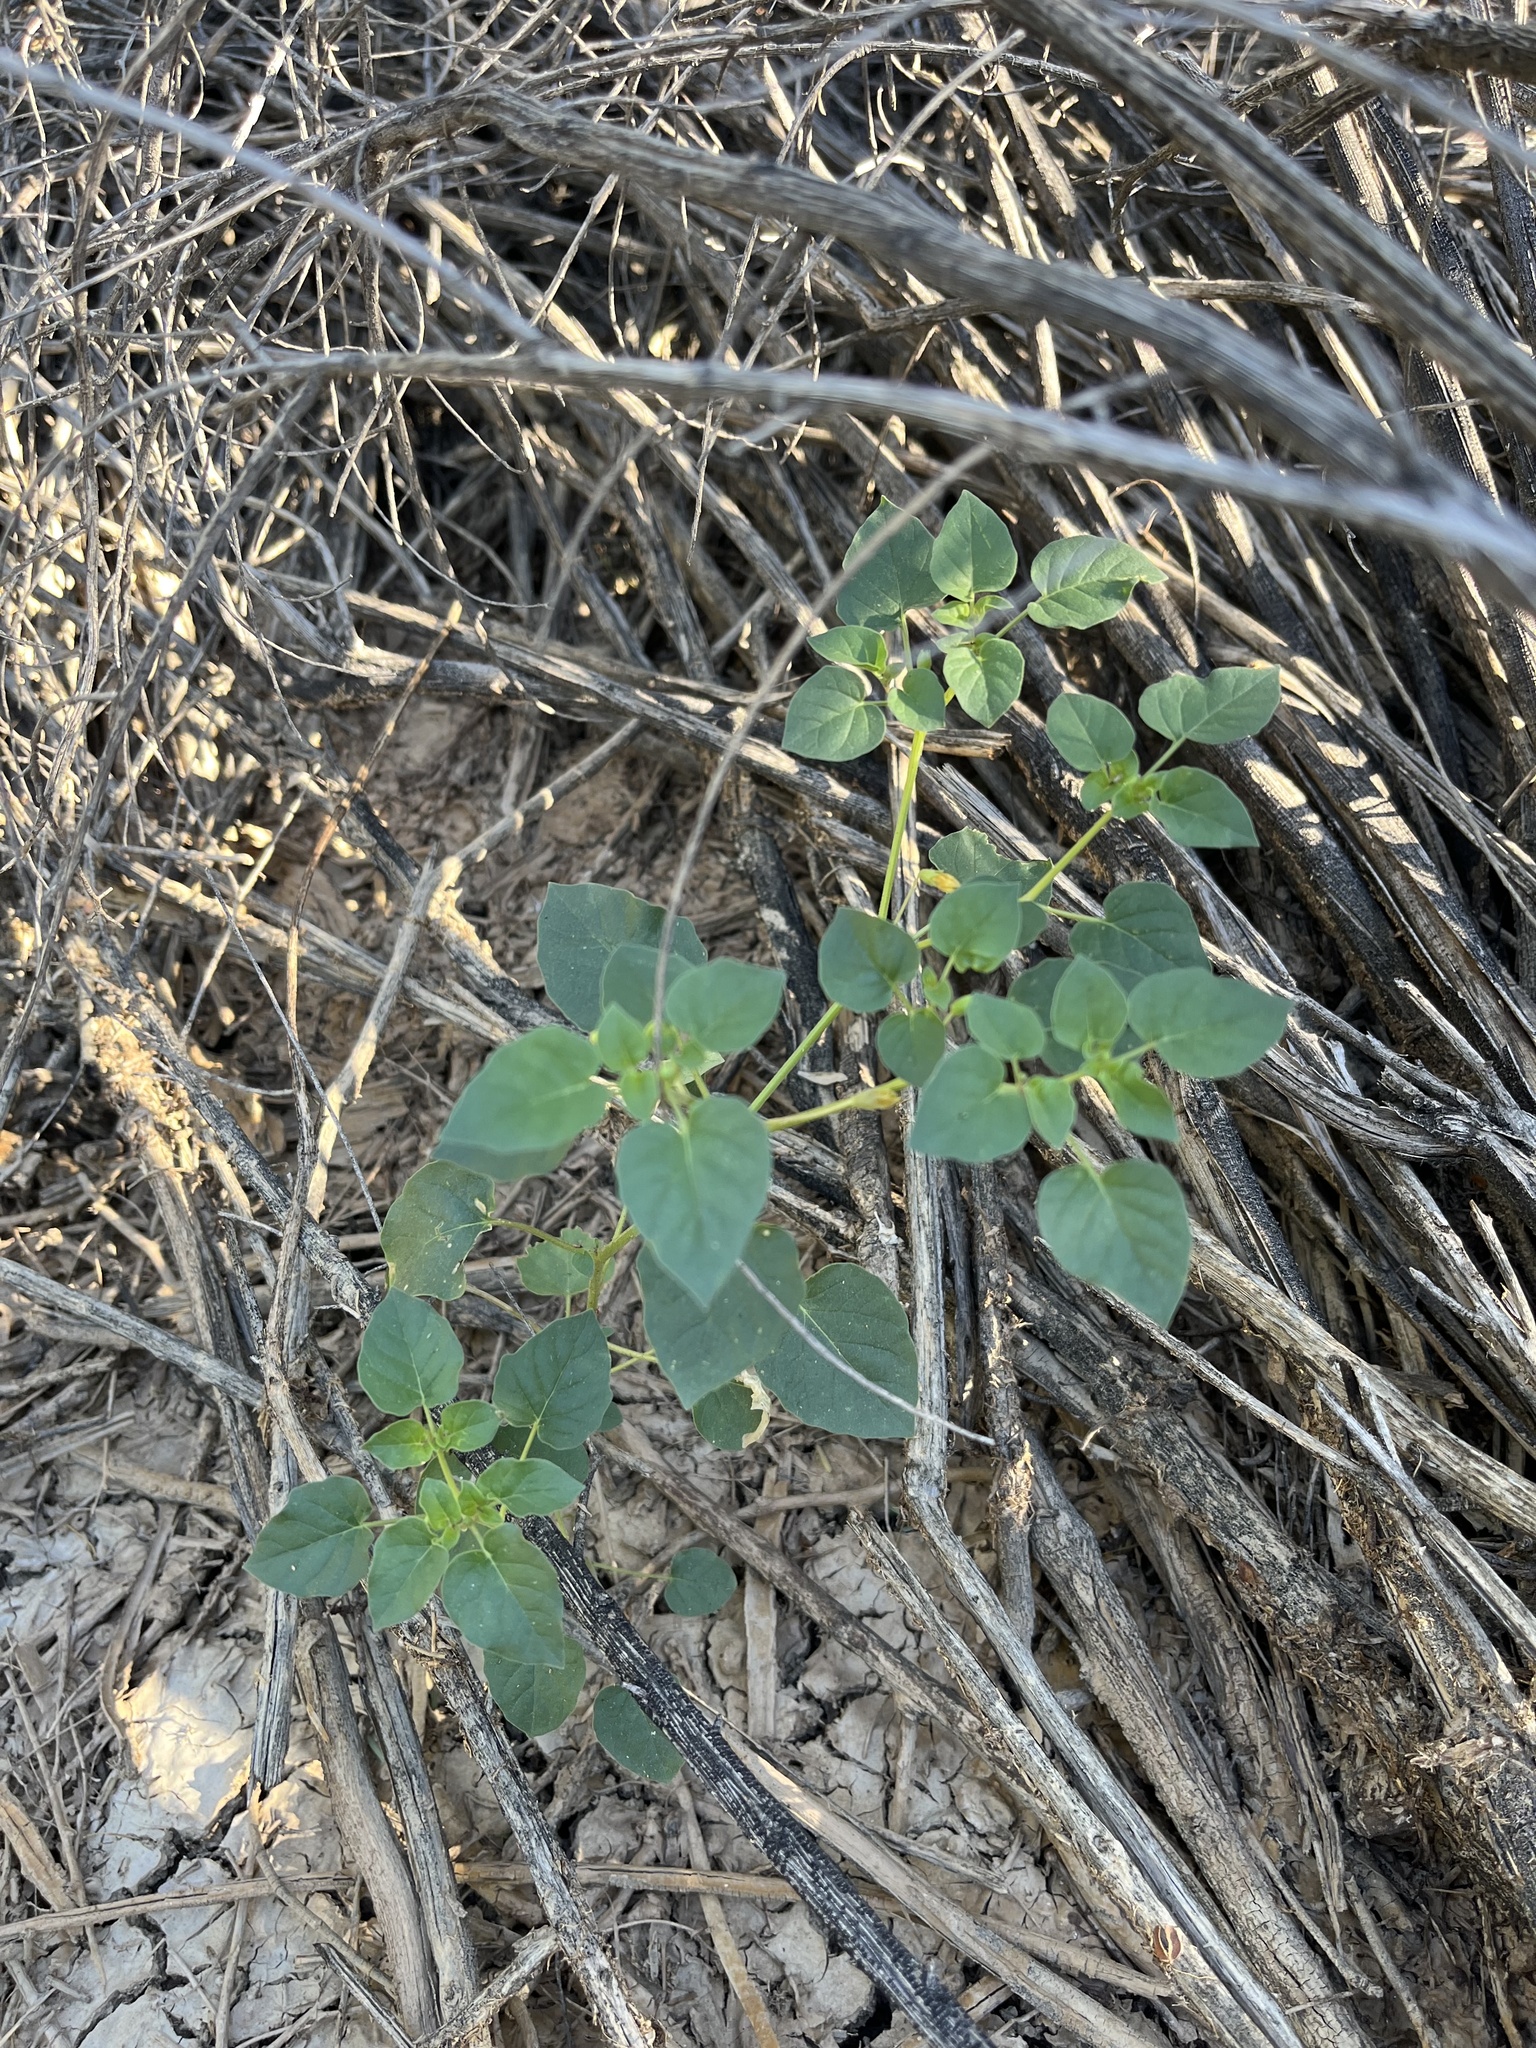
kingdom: Plantae
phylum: Tracheophyta
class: Magnoliopsida
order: Solanales
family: Solanaceae
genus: Physalis
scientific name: Physalis crassifolia
